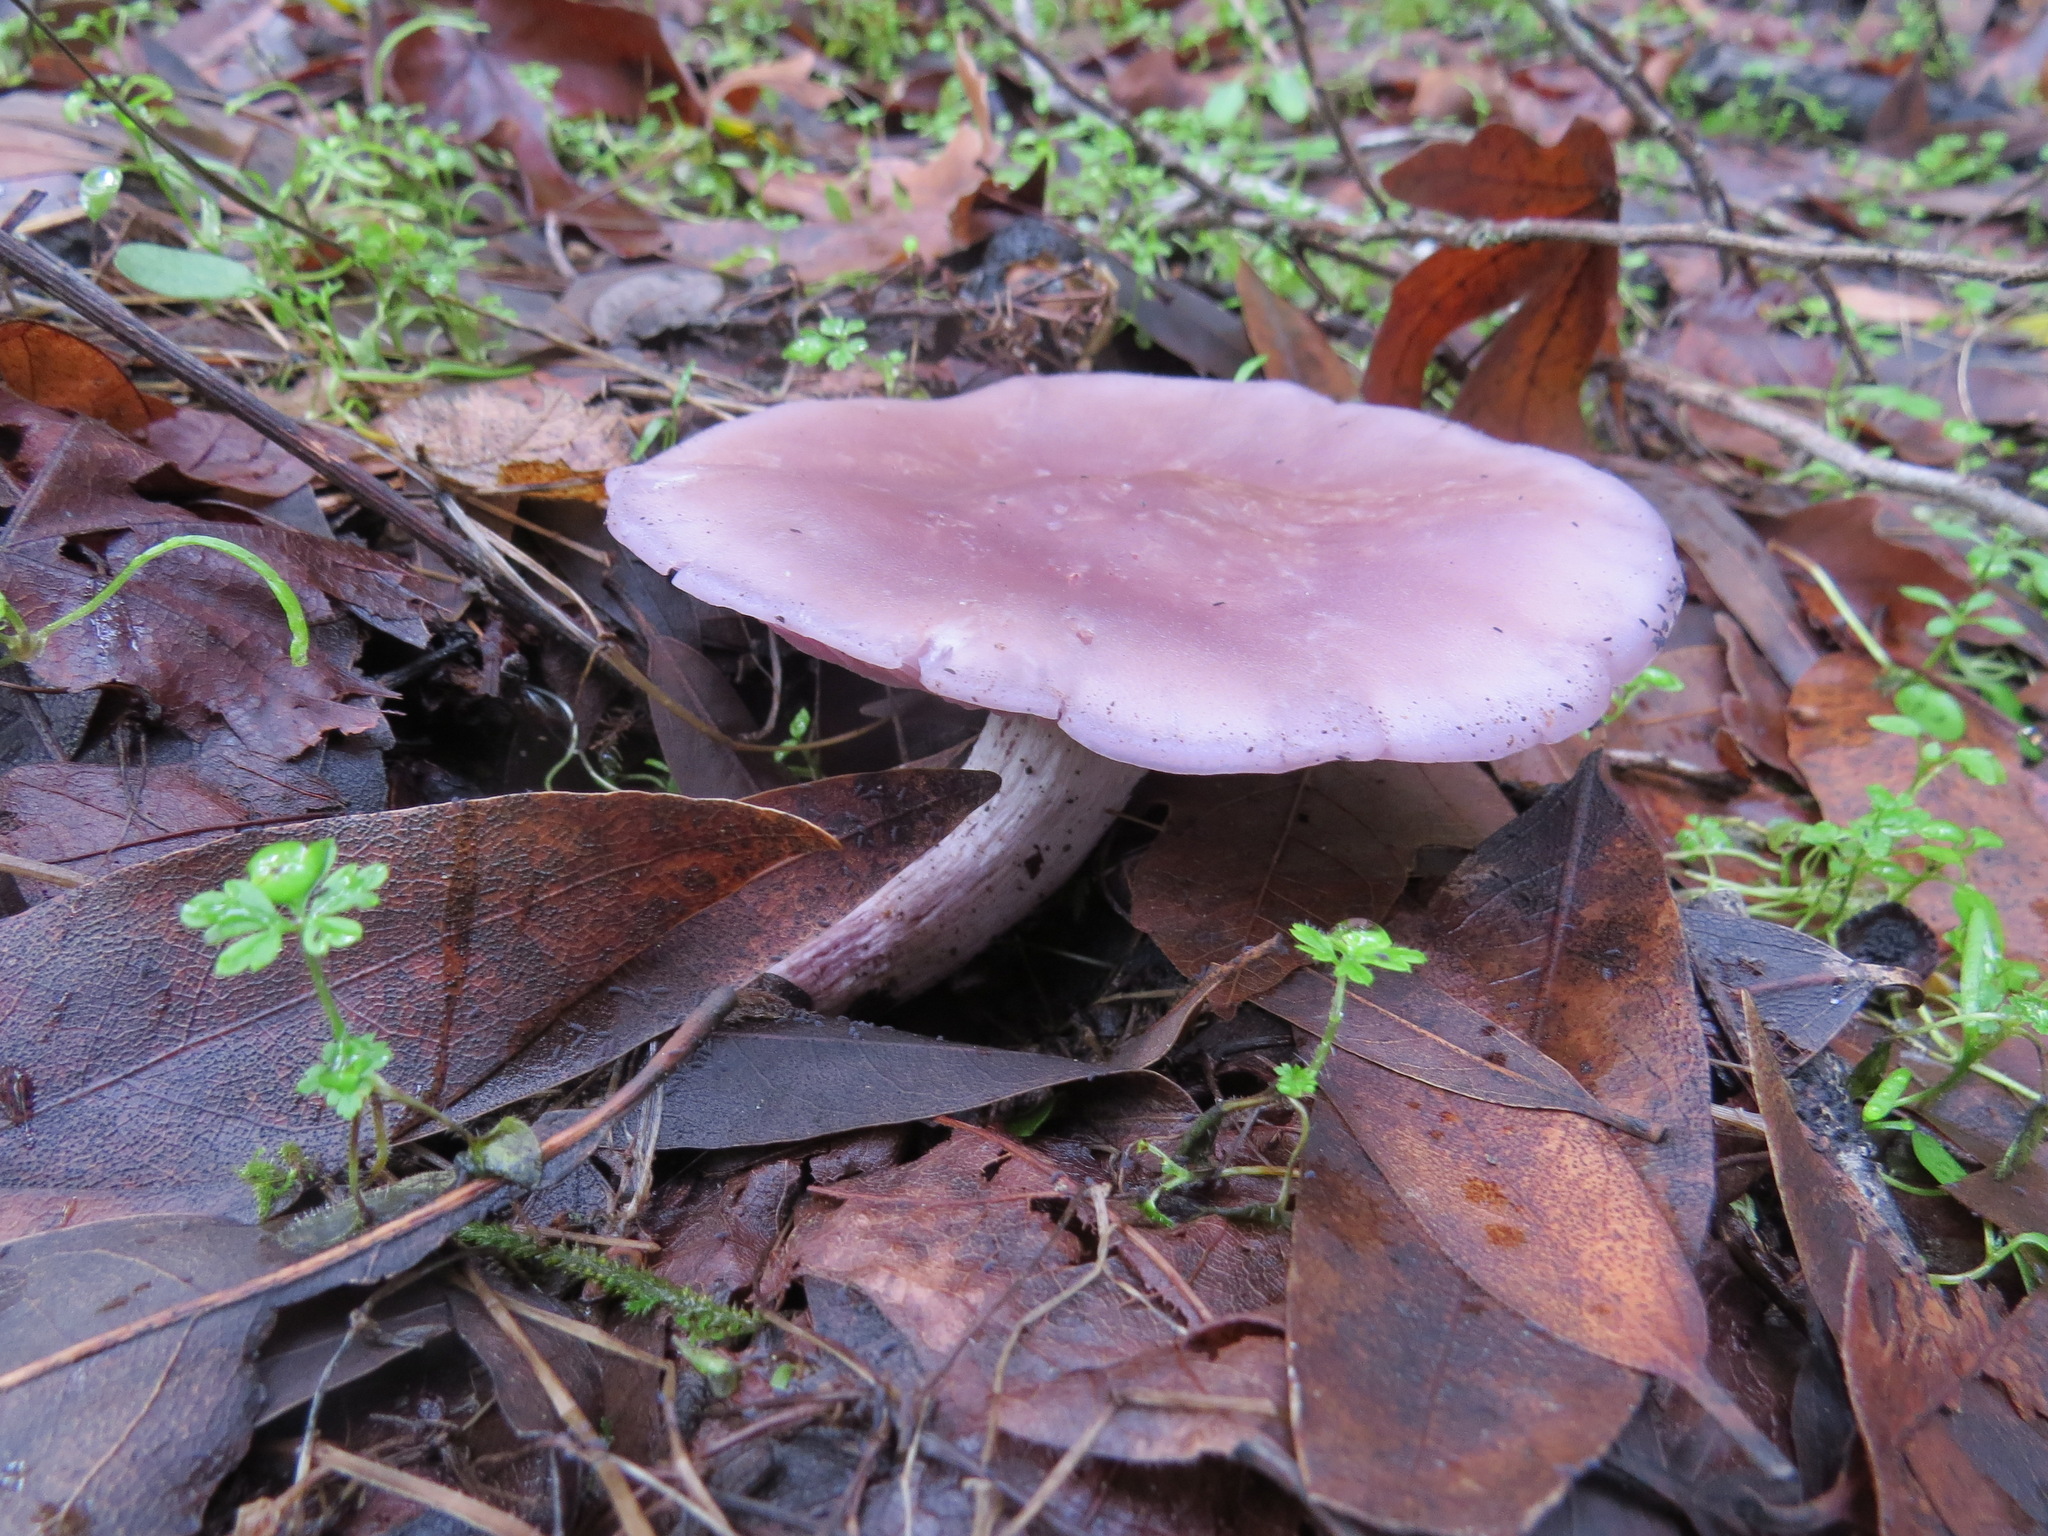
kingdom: Fungi
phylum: Basidiomycota
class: Agaricomycetes
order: Agaricales
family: Tricholomataceae
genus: Collybia
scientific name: Collybia
